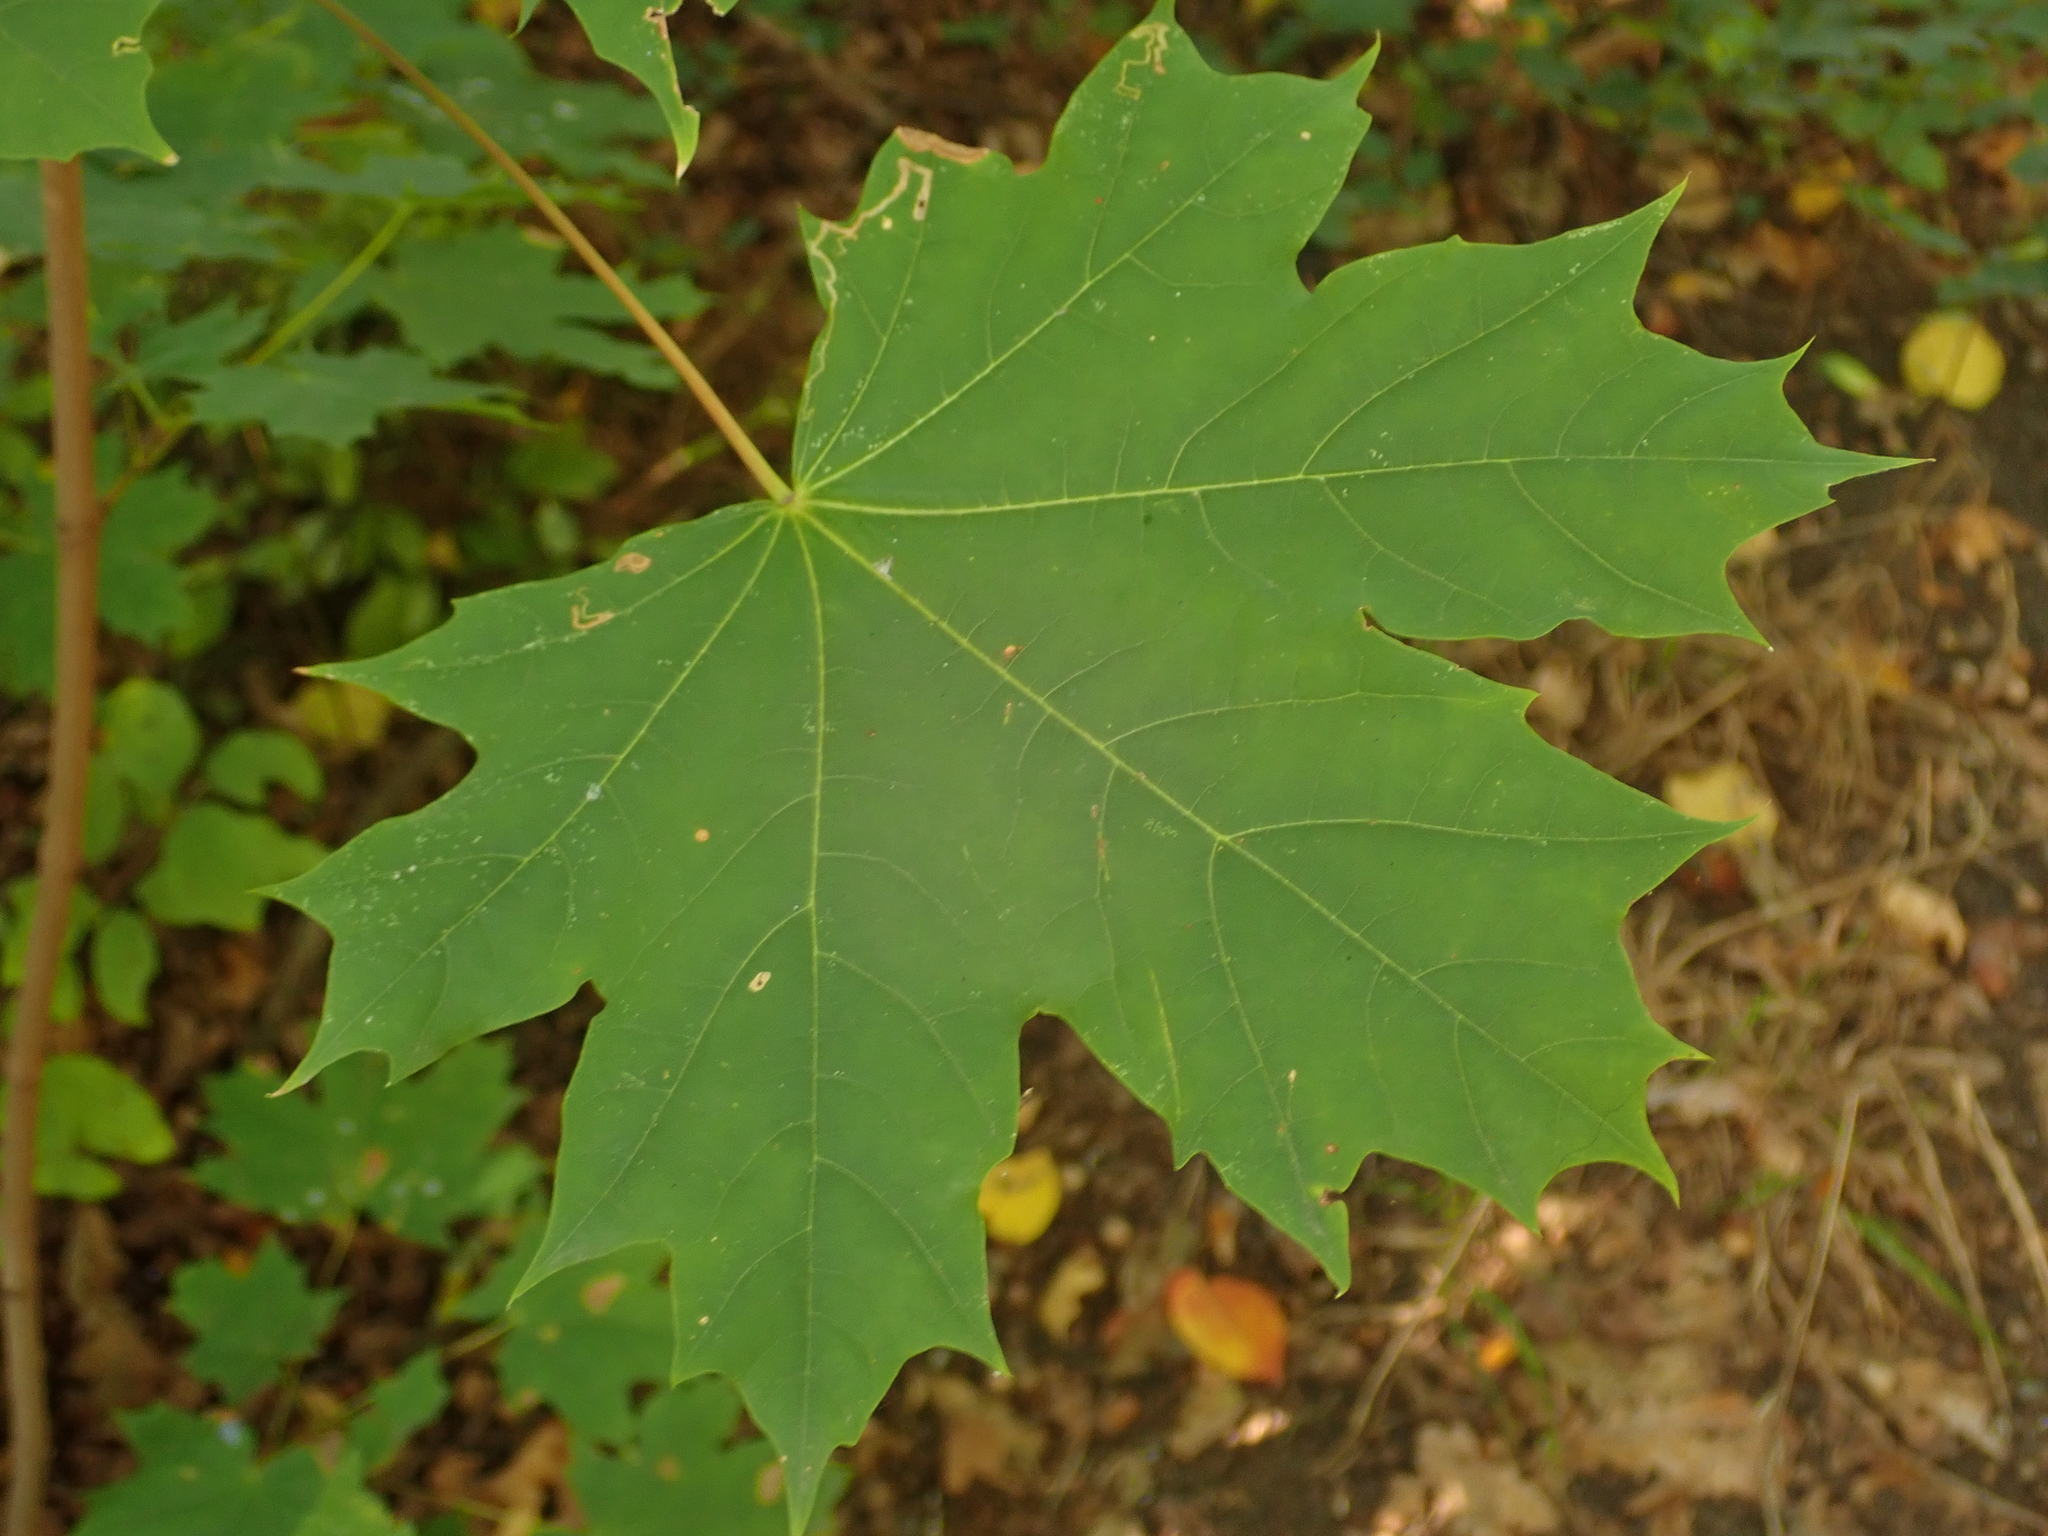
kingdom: Plantae
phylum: Tracheophyta
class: Magnoliopsida
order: Sapindales
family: Sapindaceae
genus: Acer
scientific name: Acer platanoides
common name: Norway maple
